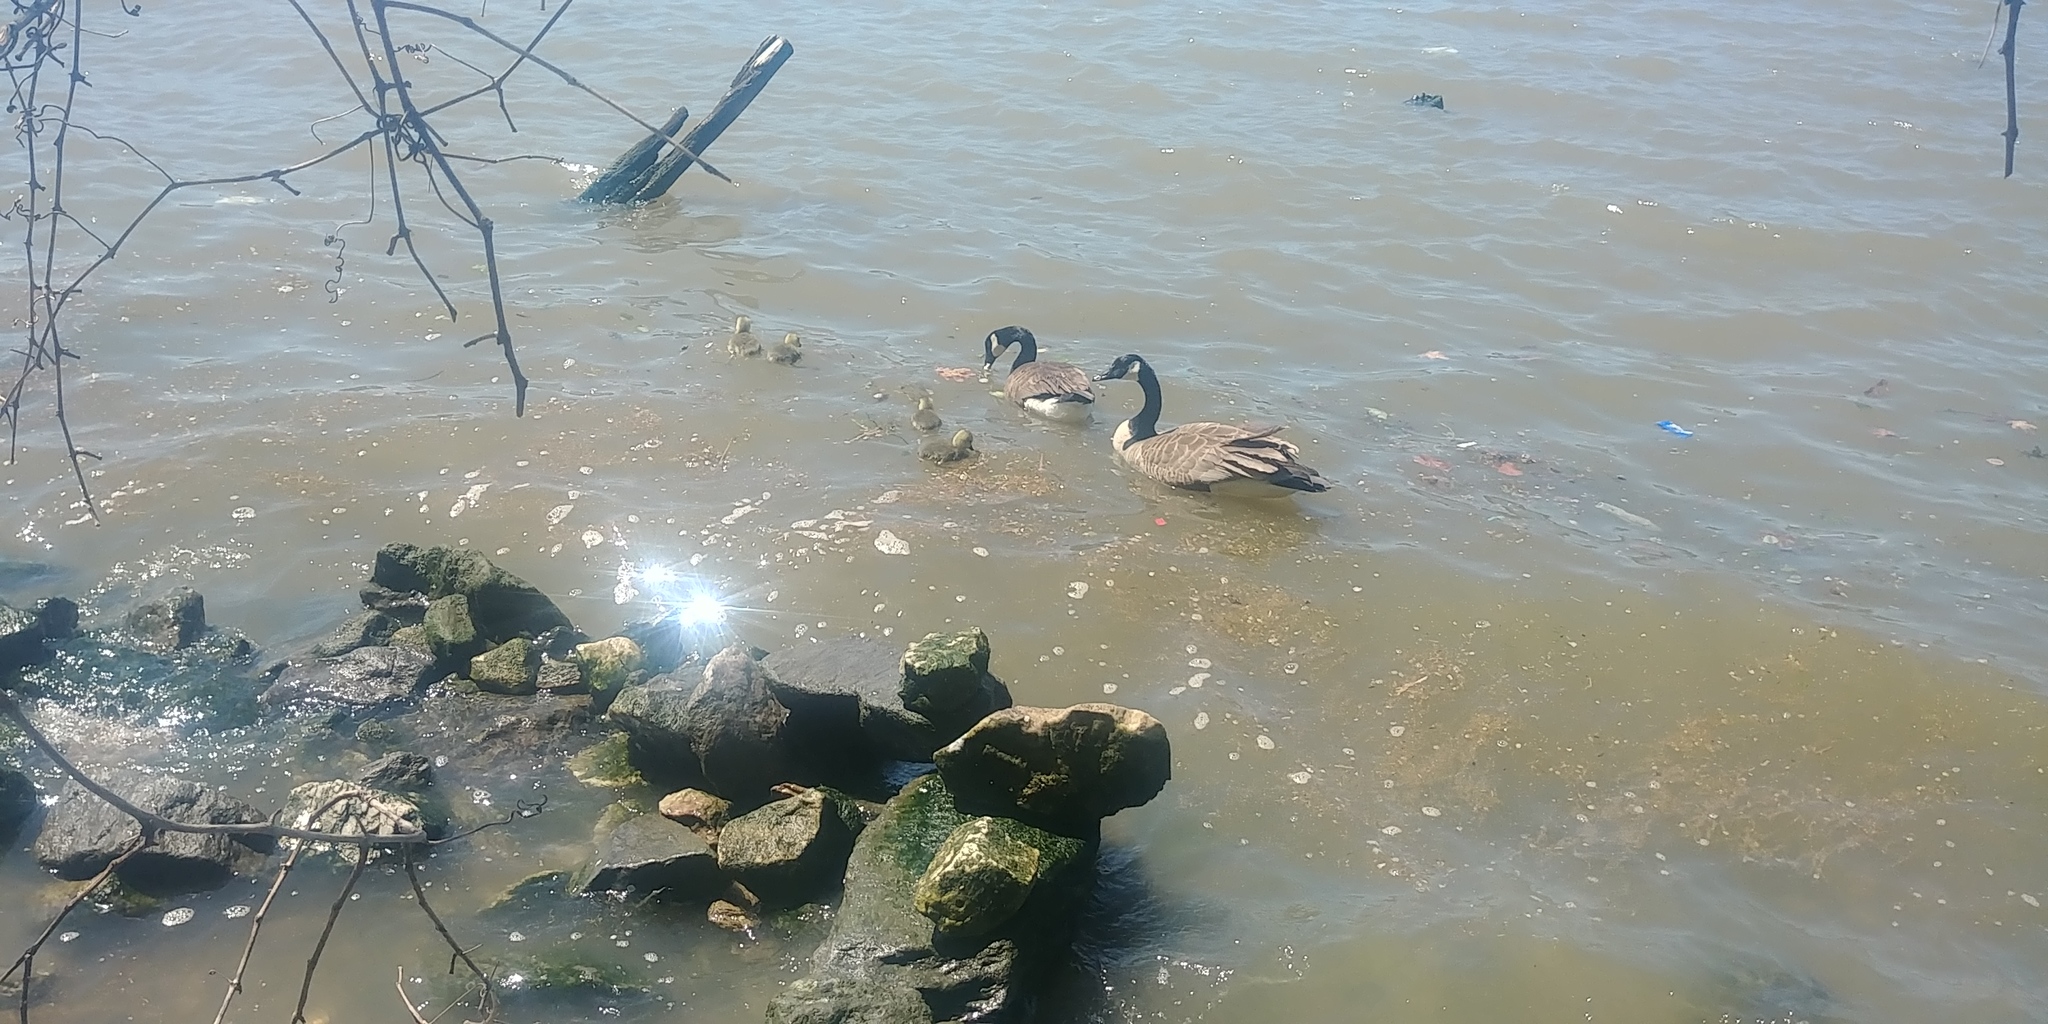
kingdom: Animalia
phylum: Chordata
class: Aves
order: Anseriformes
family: Anatidae
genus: Branta
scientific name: Branta canadensis
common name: Canada goose
